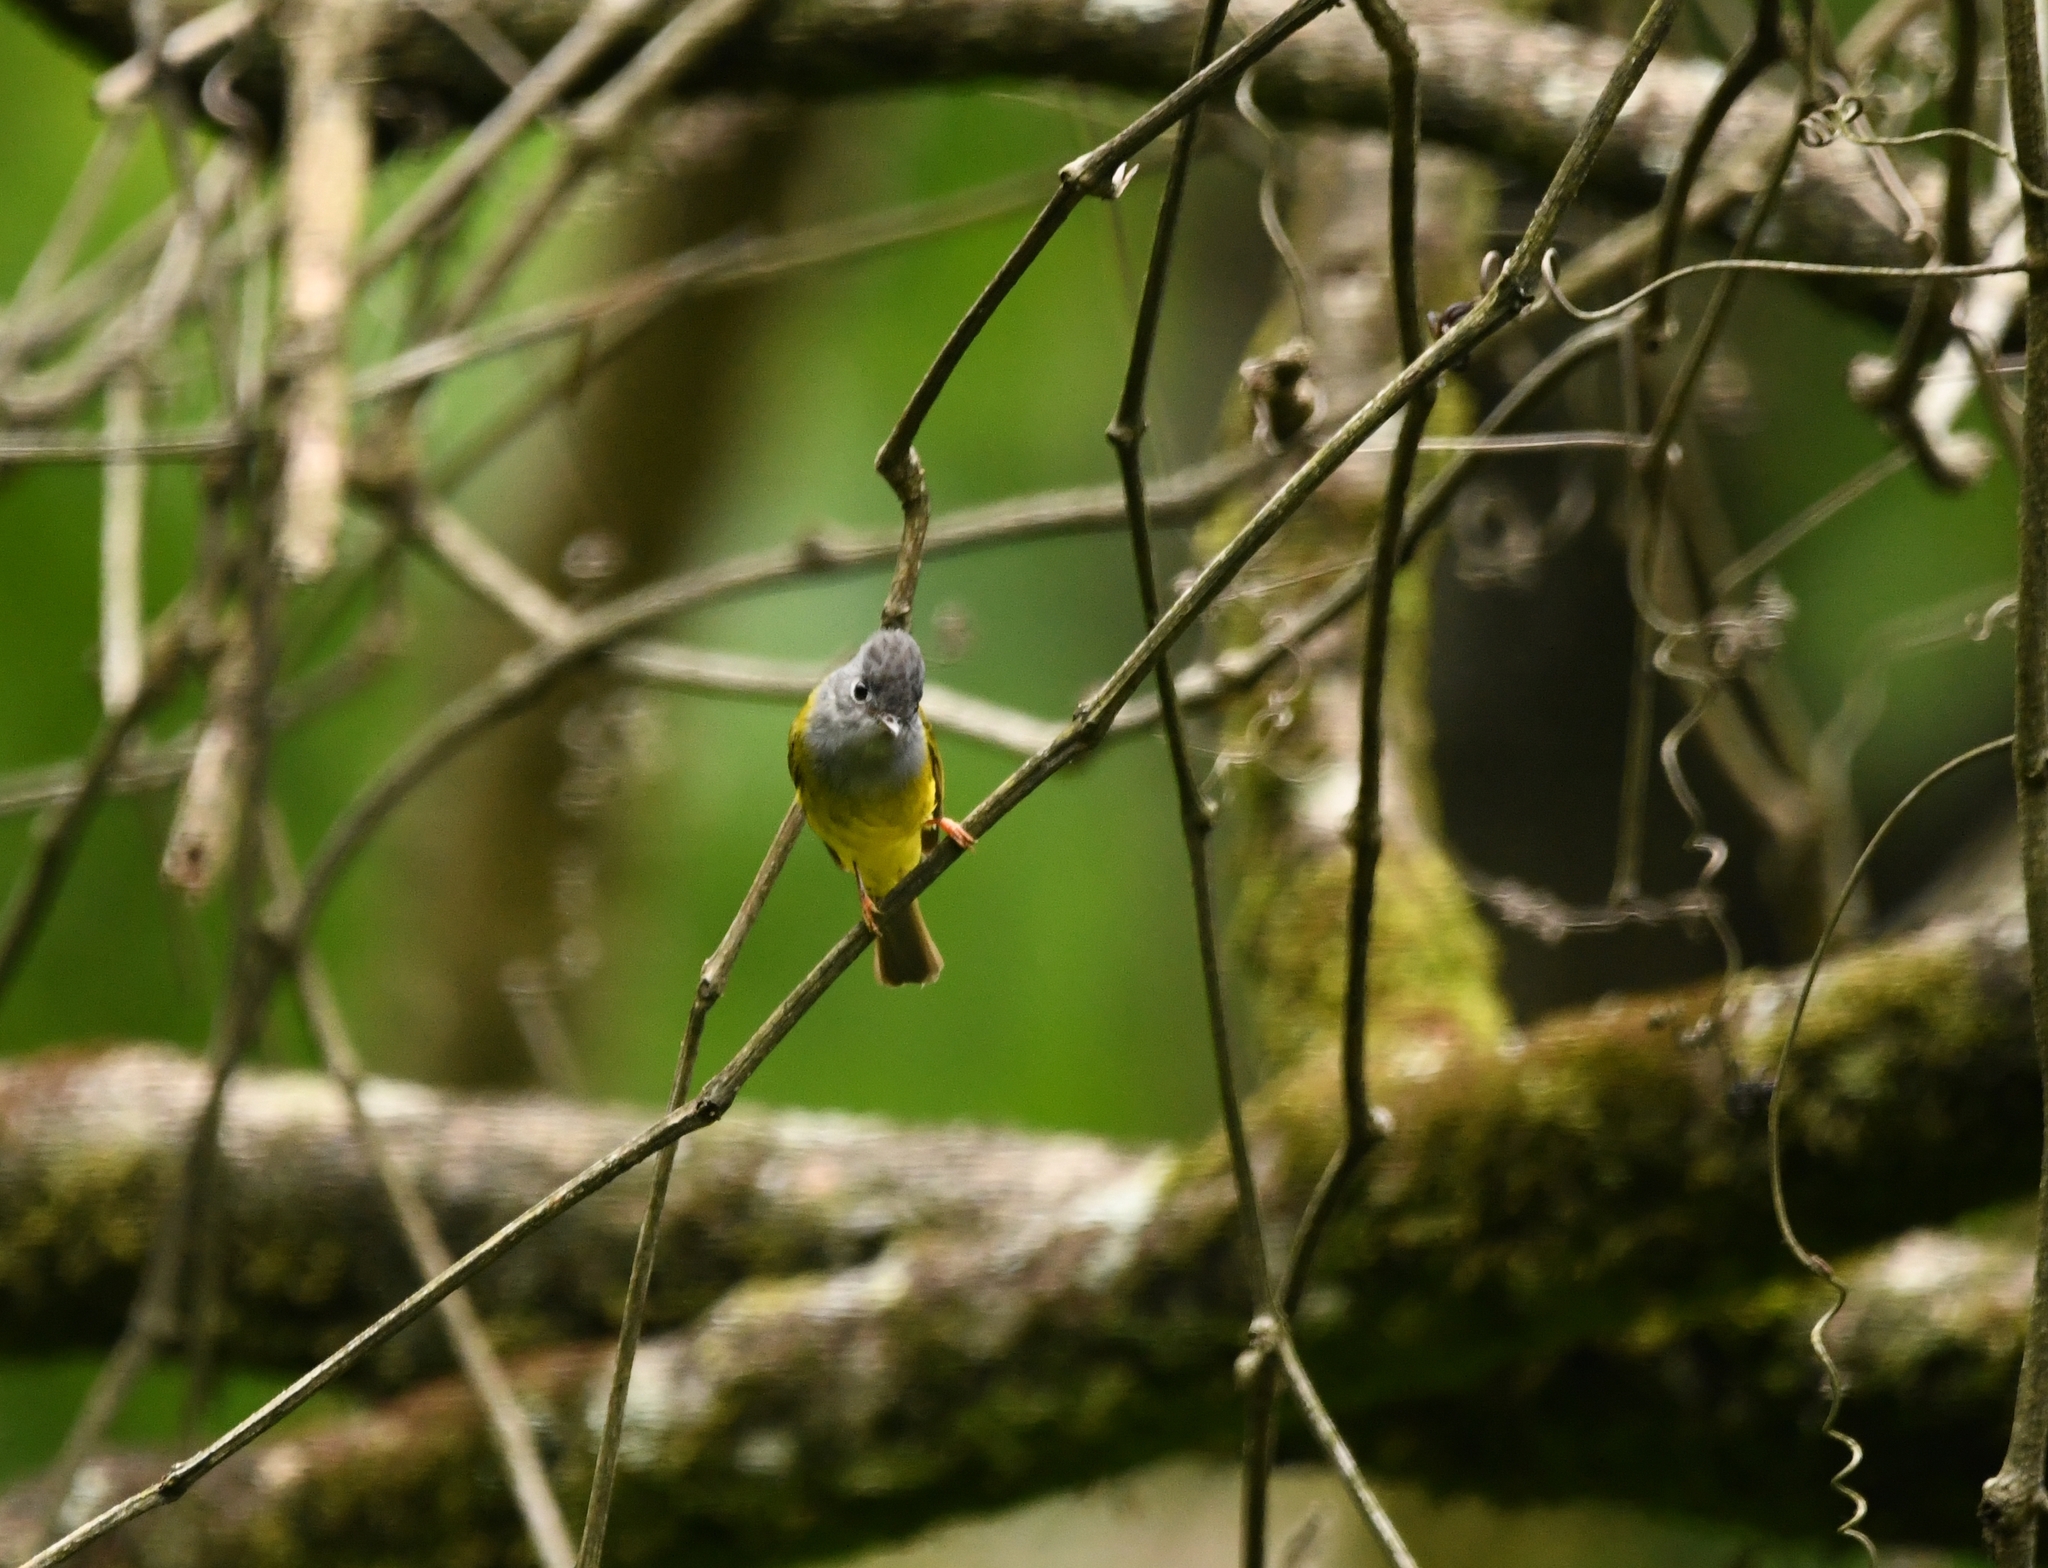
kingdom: Animalia
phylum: Chordata
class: Aves
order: Passeriformes
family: Stenostiridae
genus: Culicicapa
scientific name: Culicicapa ceylonensis
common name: Grey-headed canary-flycatcher
